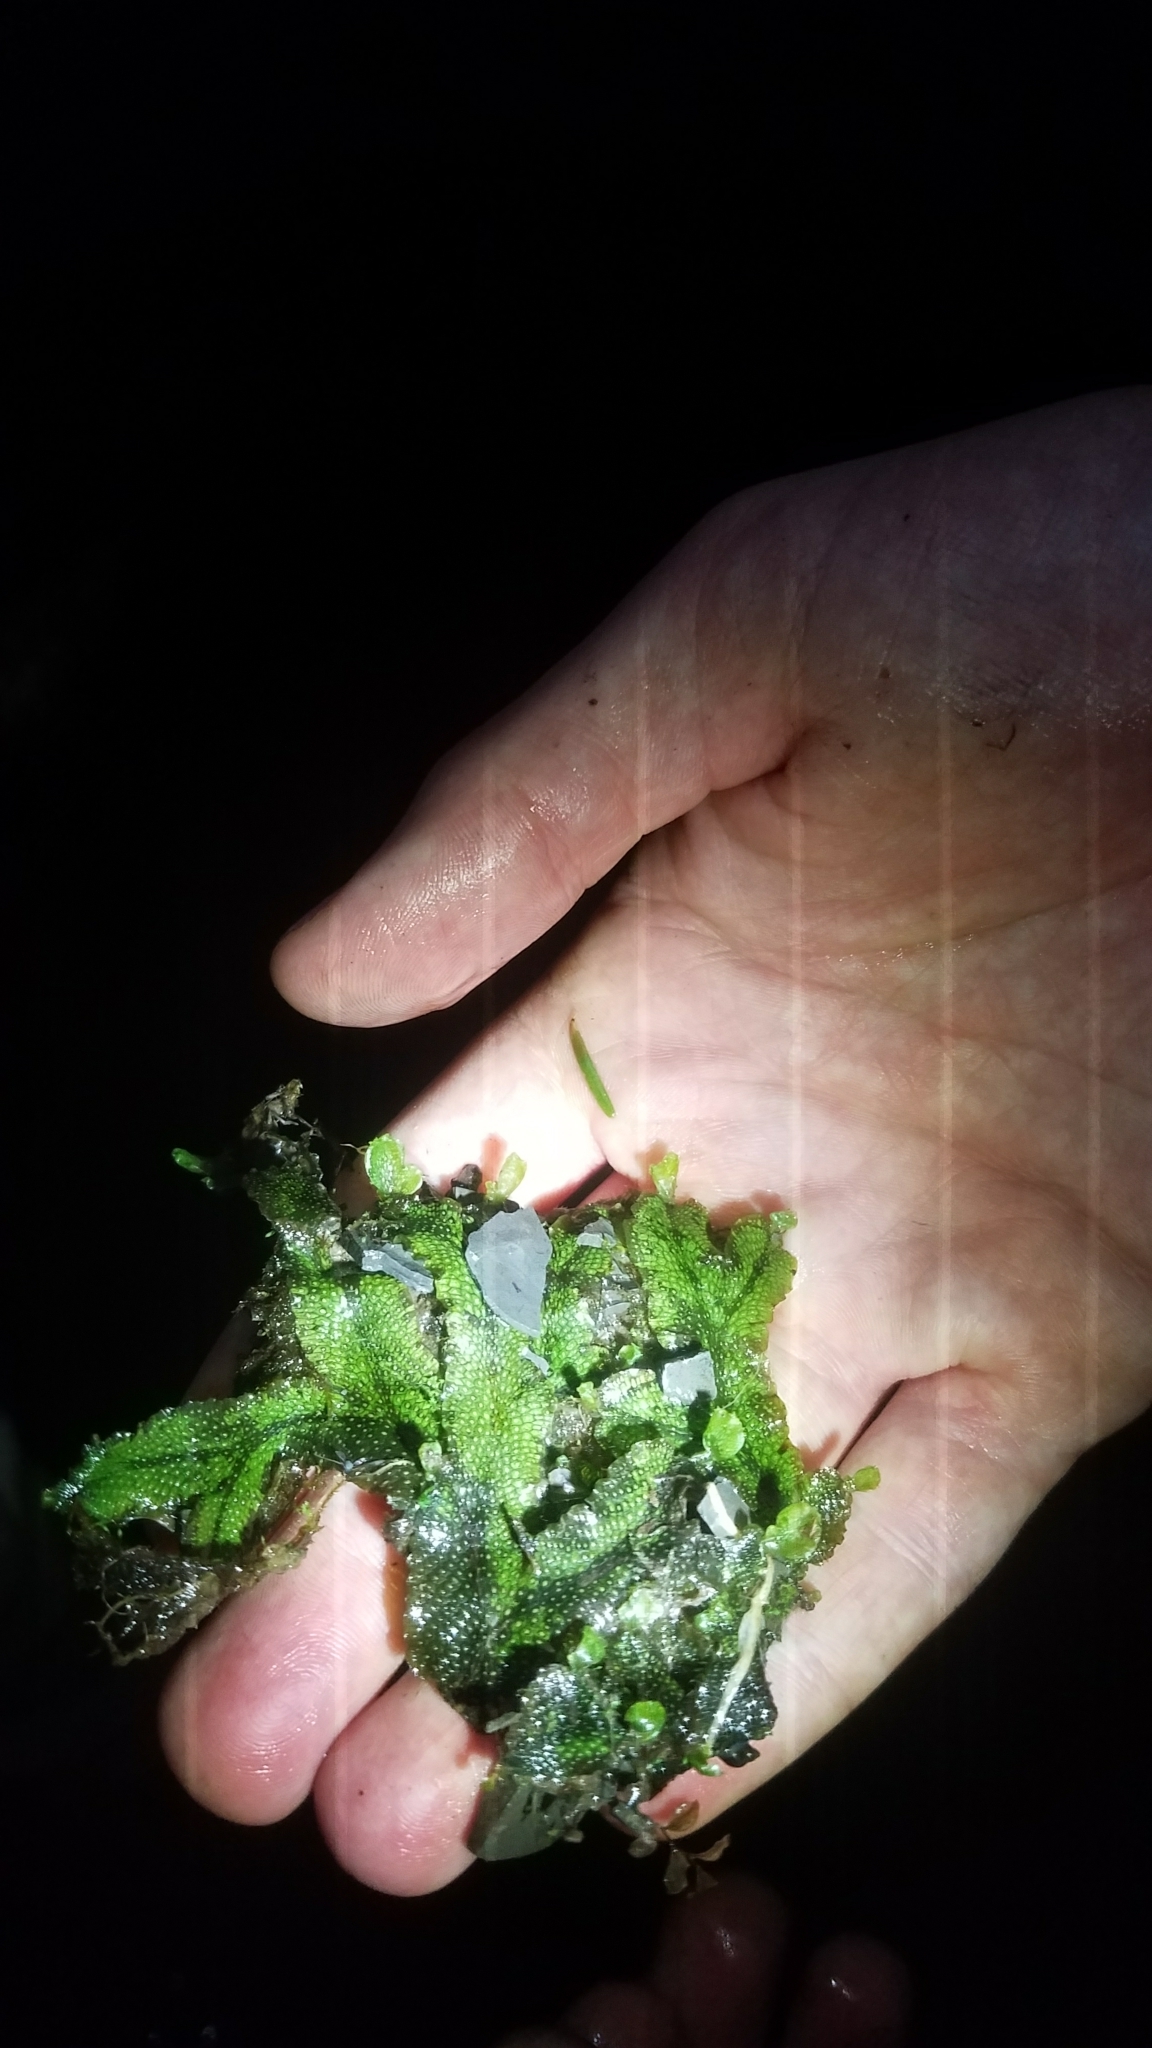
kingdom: Plantae
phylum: Marchantiophyta
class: Marchantiopsida
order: Marchantiales
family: Conocephalaceae
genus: Conocephalum
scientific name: Conocephalum salebrosum
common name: Cat-tongue liverwort
